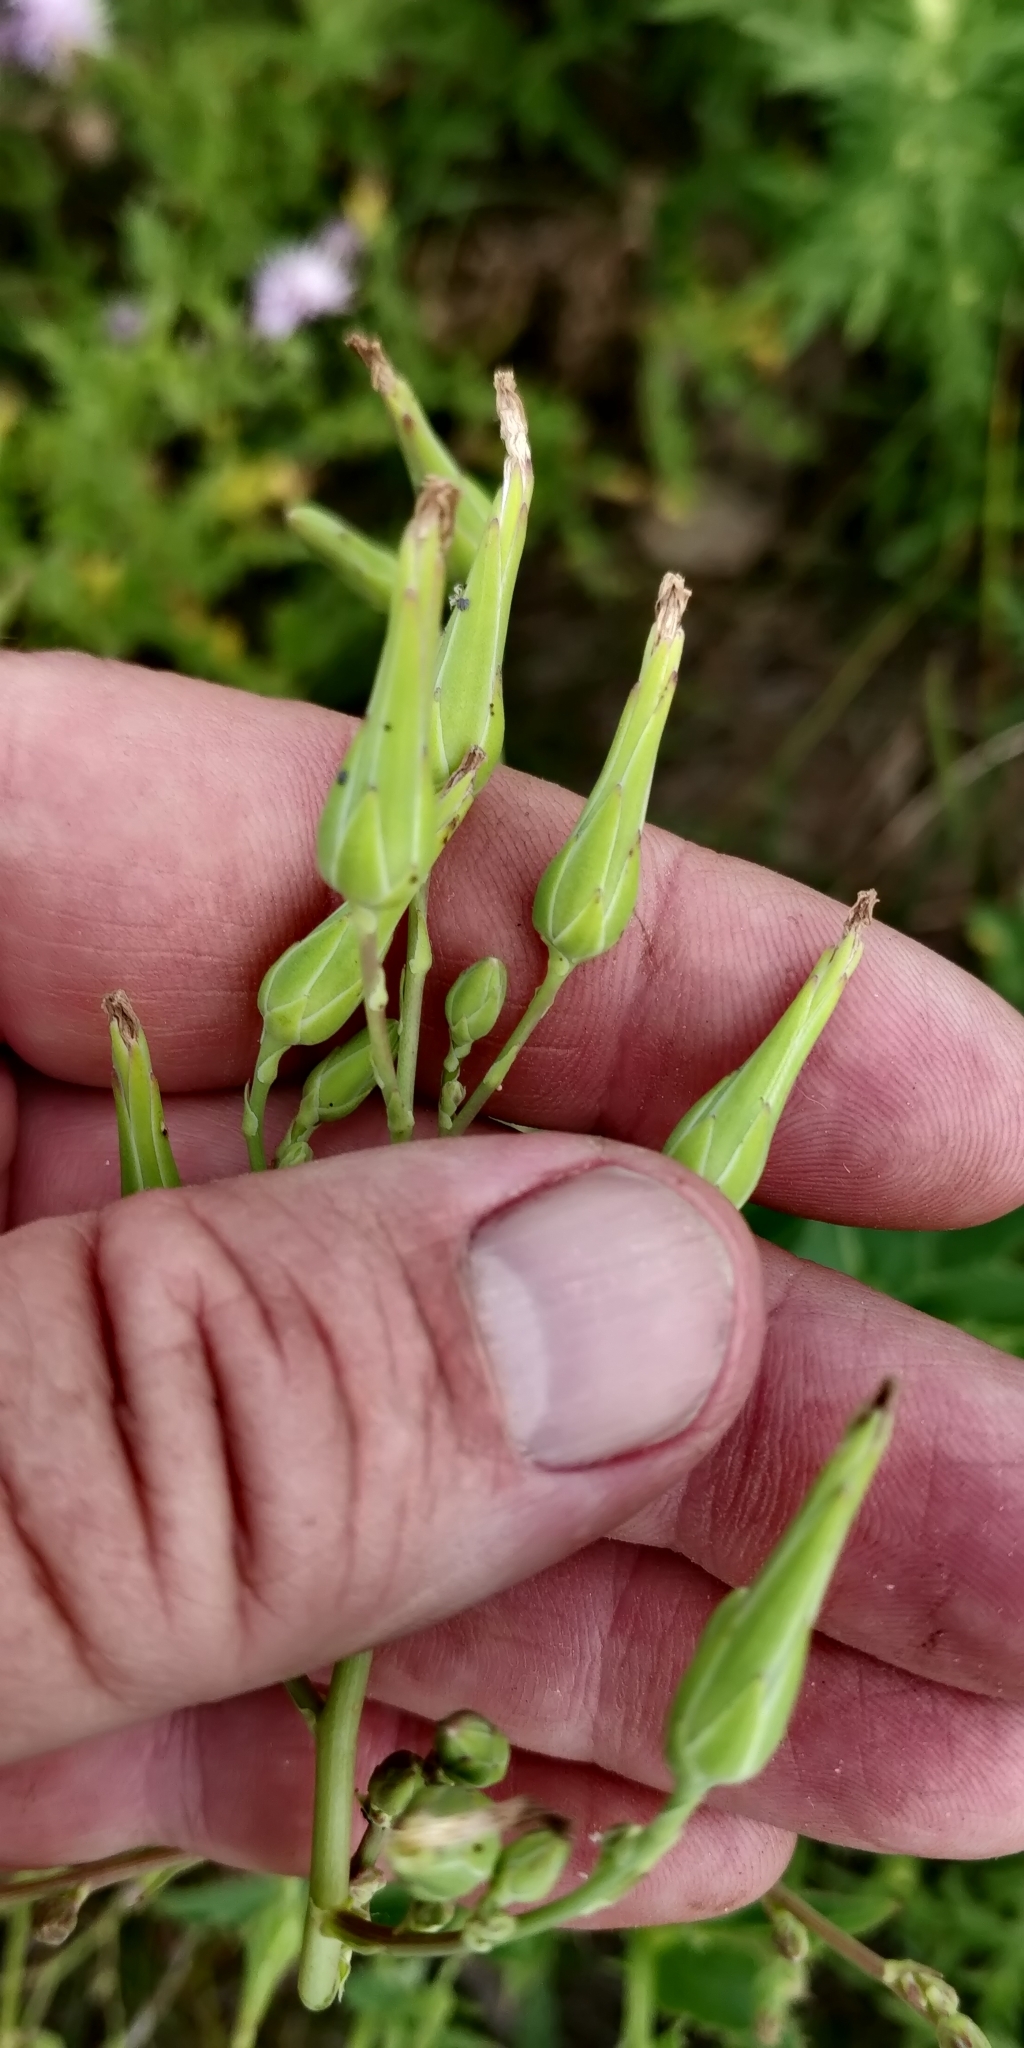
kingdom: Plantae
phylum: Tracheophyta
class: Magnoliopsida
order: Asterales
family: Asteraceae
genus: Lactuca
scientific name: Lactuca ludoviciana
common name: Louisiana lettuce
